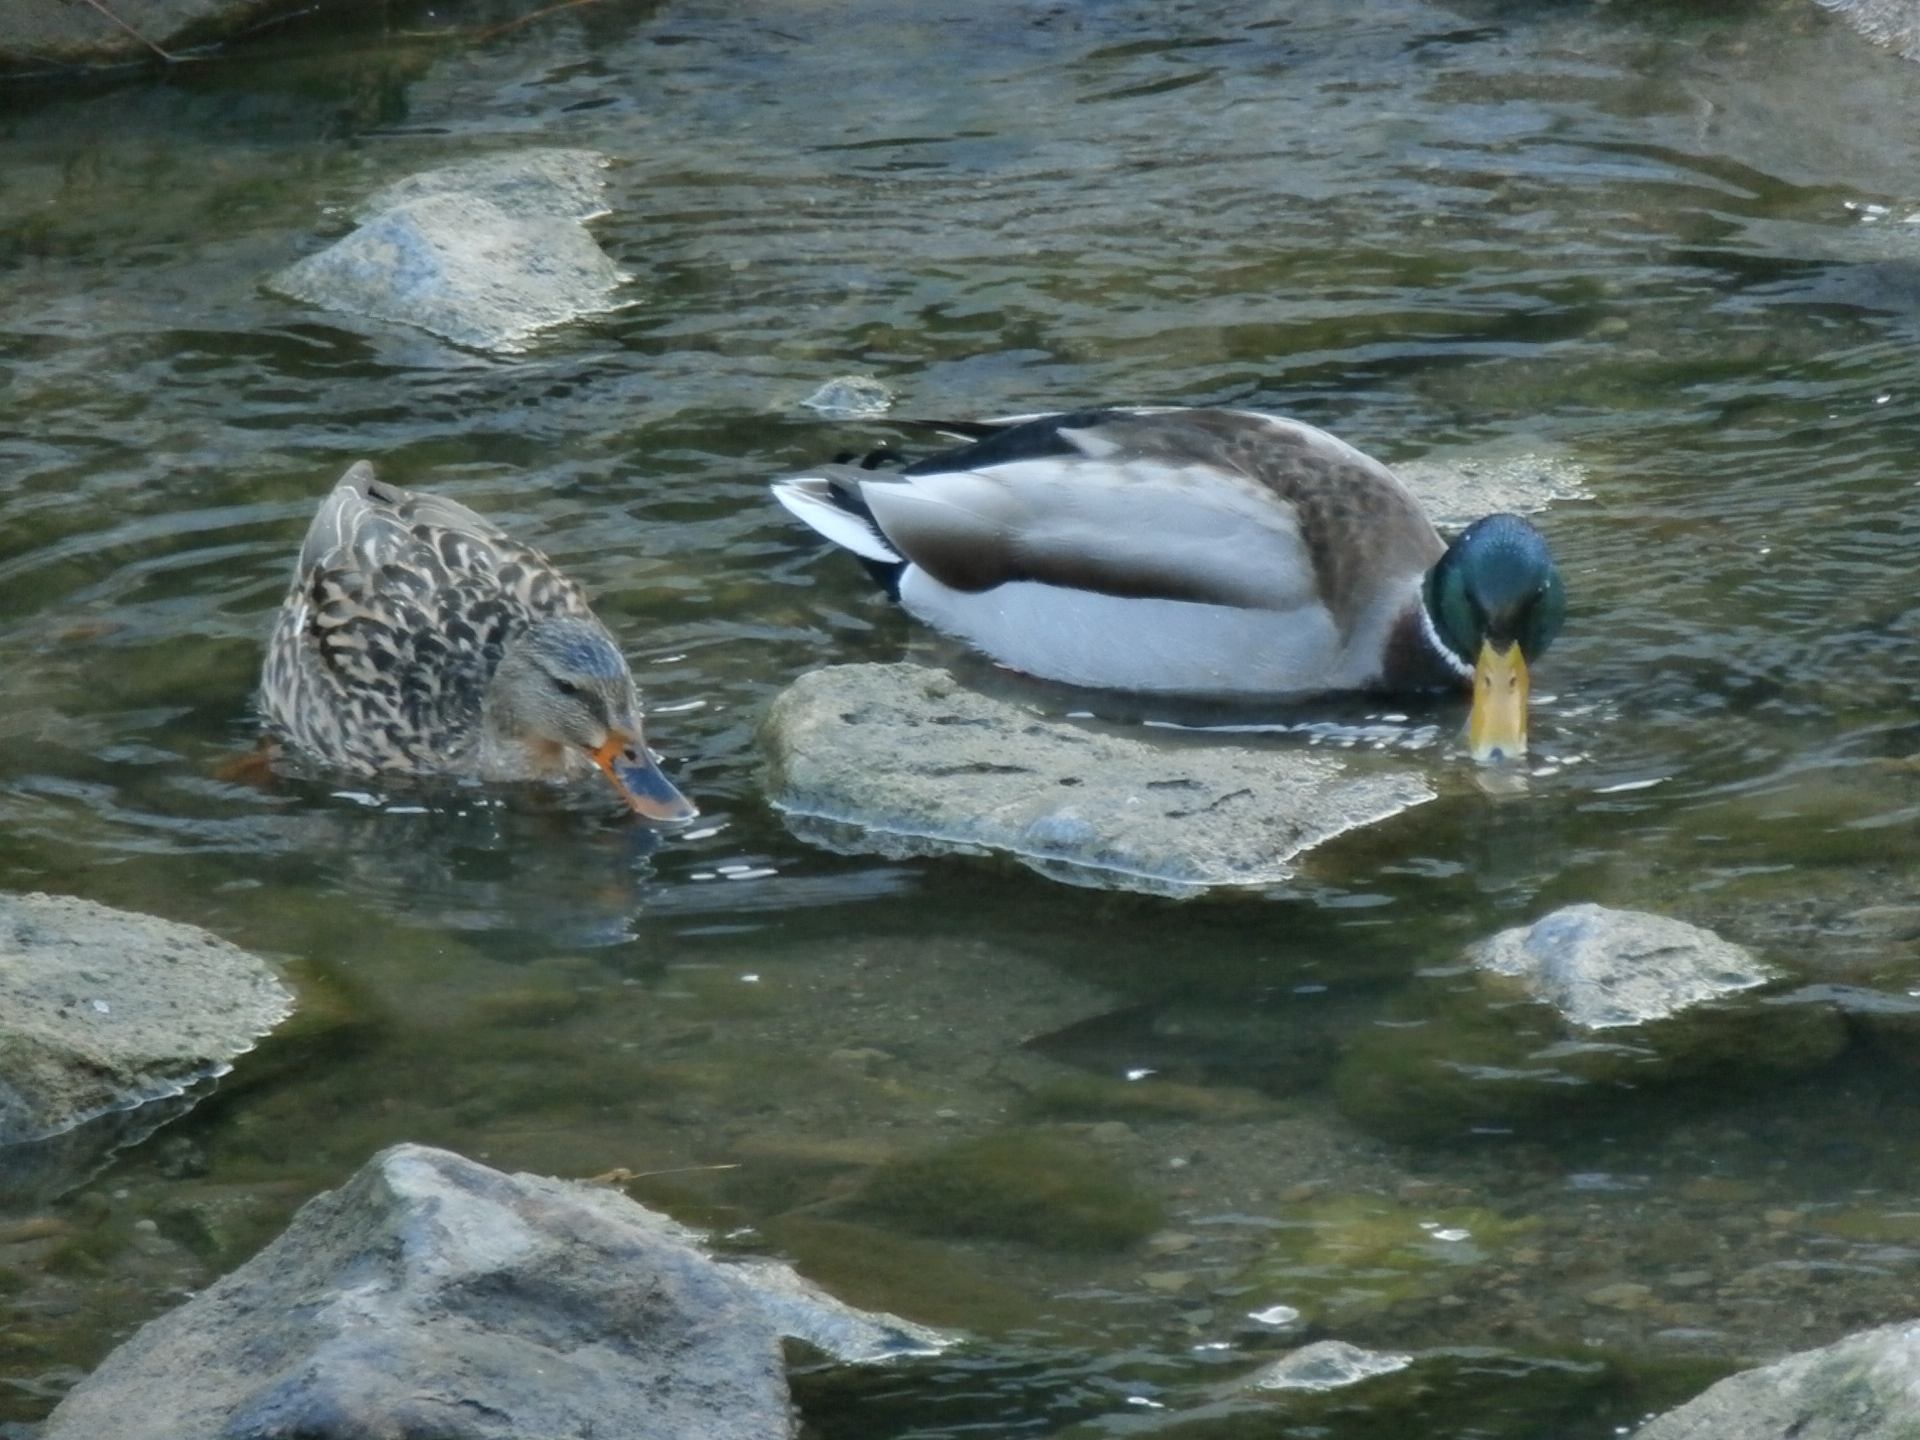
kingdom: Animalia
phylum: Chordata
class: Aves
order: Anseriformes
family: Anatidae
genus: Anas
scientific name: Anas platyrhynchos
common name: Mallard
